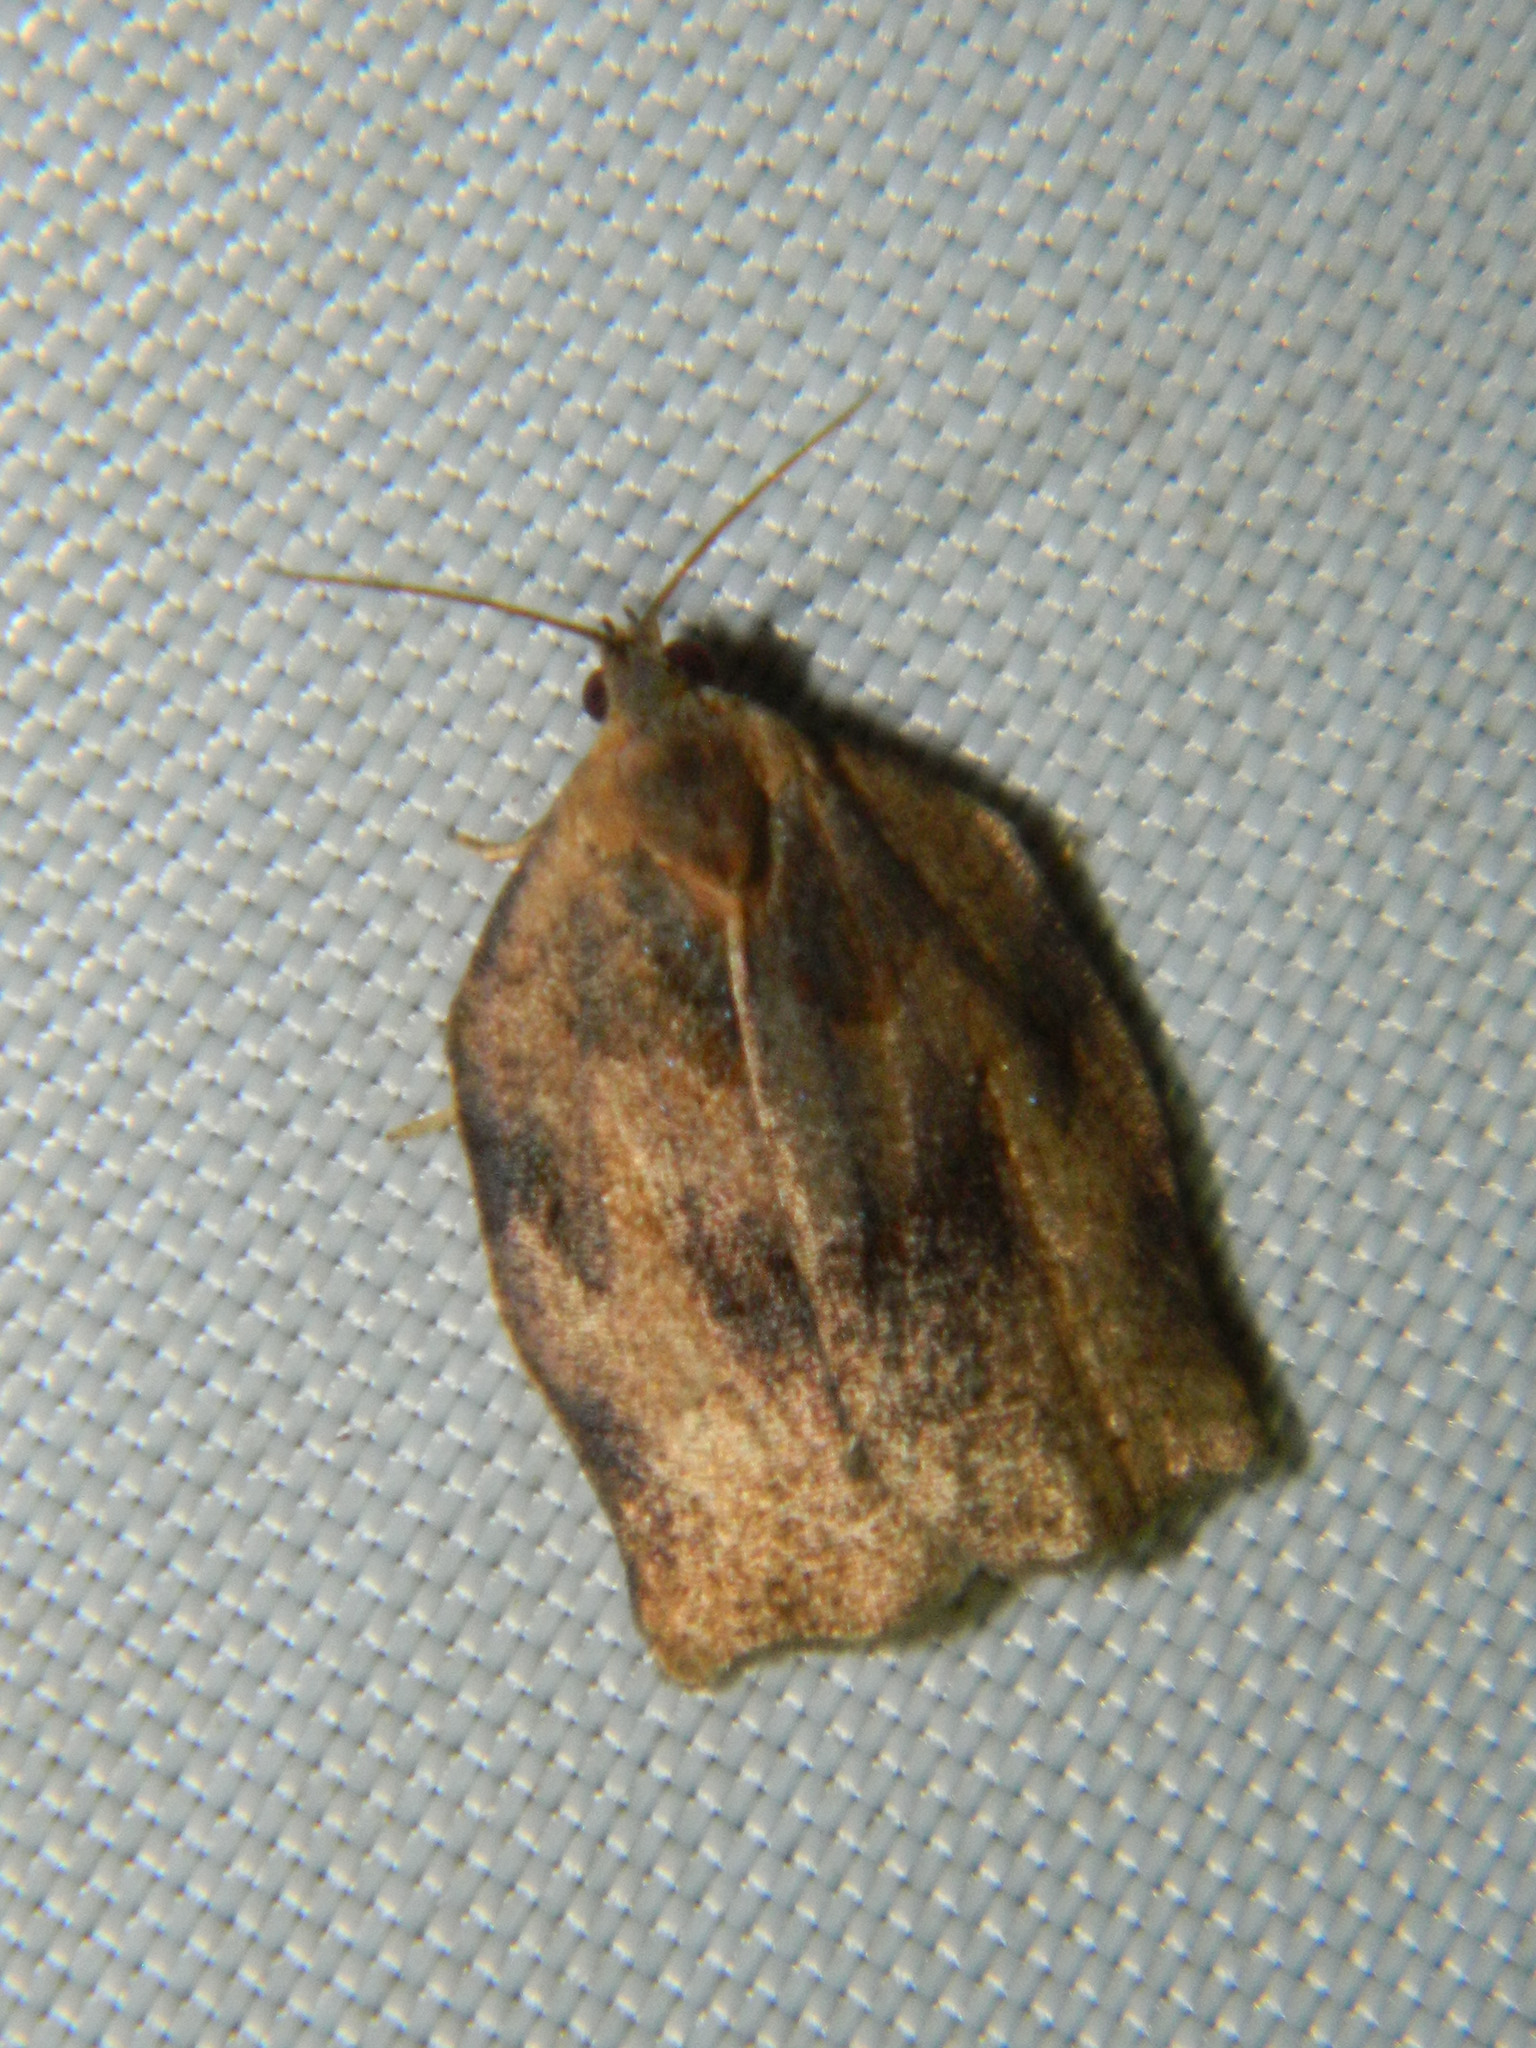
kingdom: Animalia
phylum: Arthropoda
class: Insecta
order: Lepidoptera
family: Tortricidae
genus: Archips
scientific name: Archips purpurana
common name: Omnivorous leafroller
